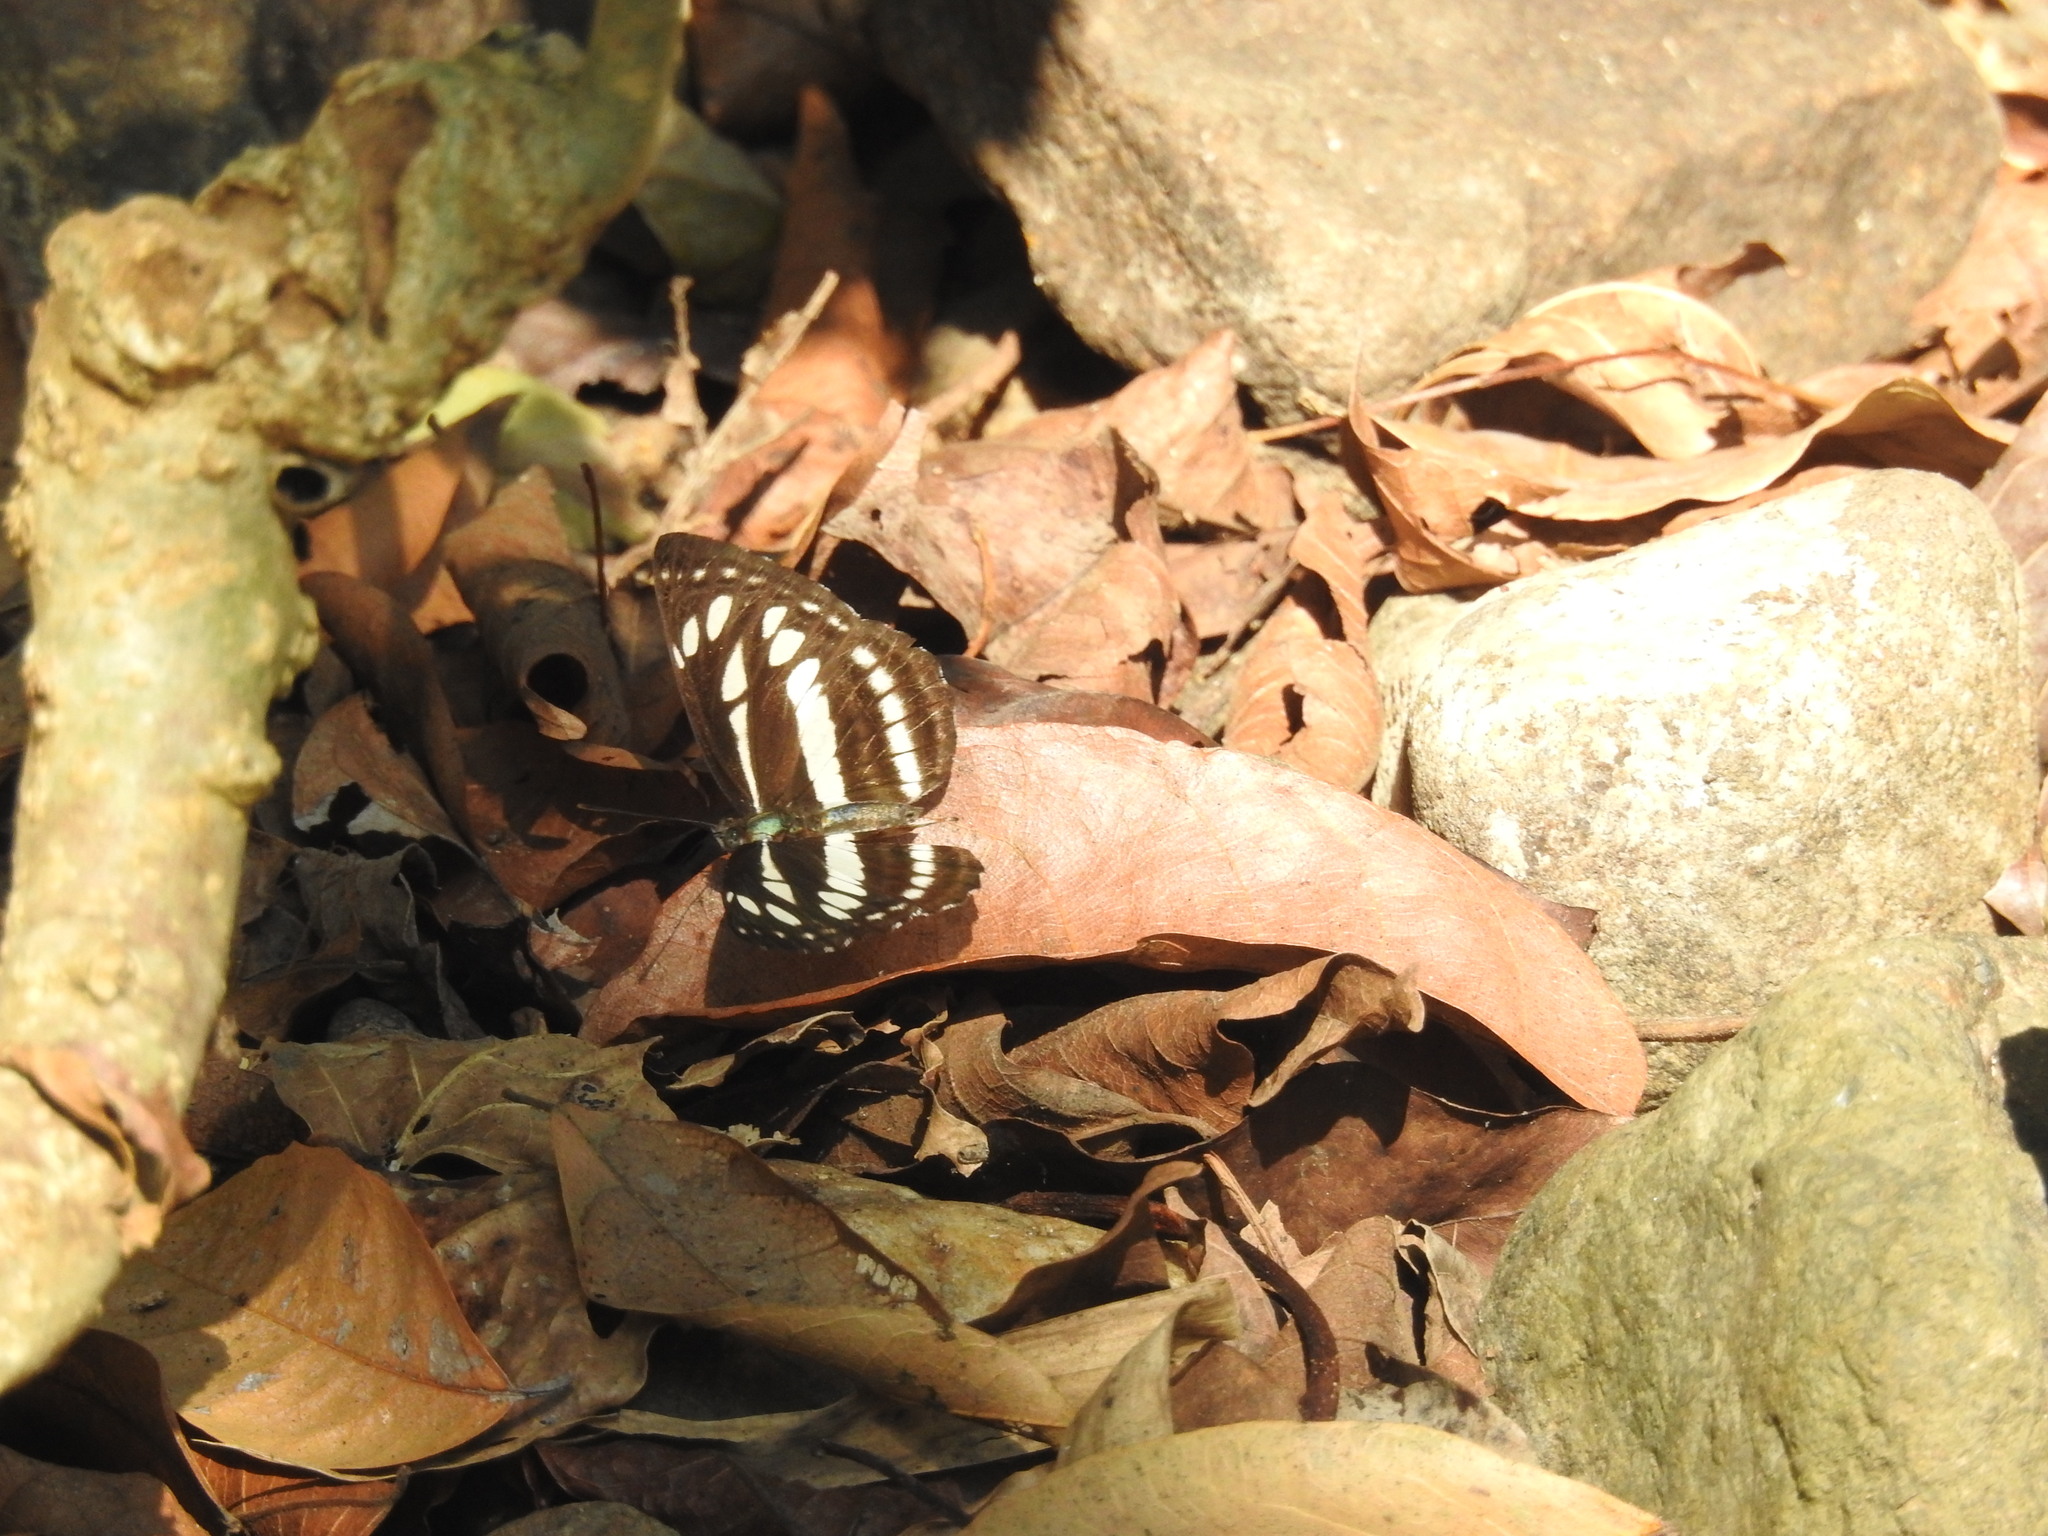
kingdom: Animalia
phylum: Arthropoda
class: Insecta
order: Lepidoptera
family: Nymphalidae
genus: Neptis
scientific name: Neptis hylas
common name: Common sailer
